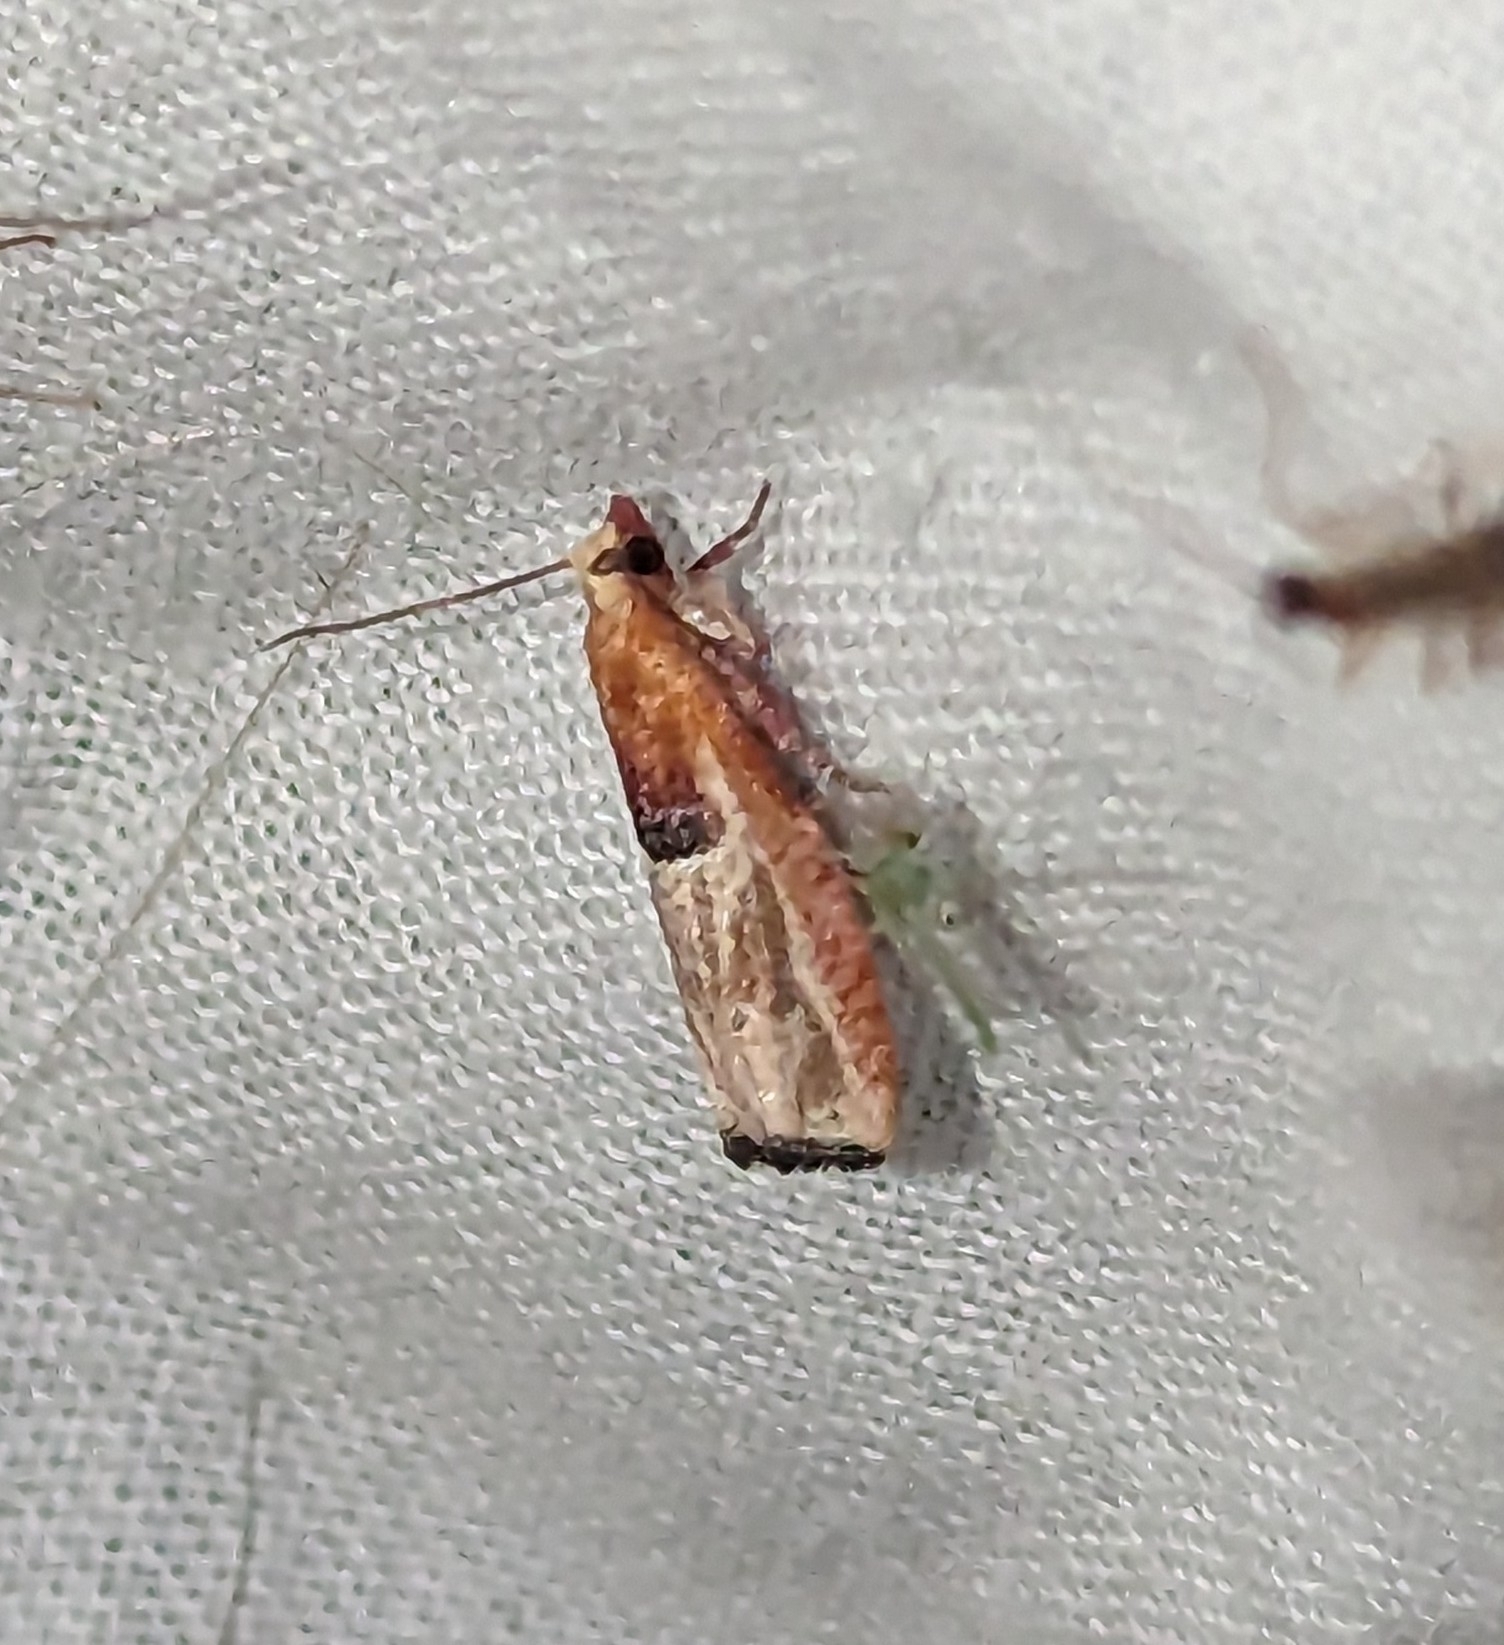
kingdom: Animalia
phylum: Arthropoda
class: Insecta
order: Lepidoptera
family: Tortricidae
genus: Epinotia
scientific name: Epinotia johnsonana
